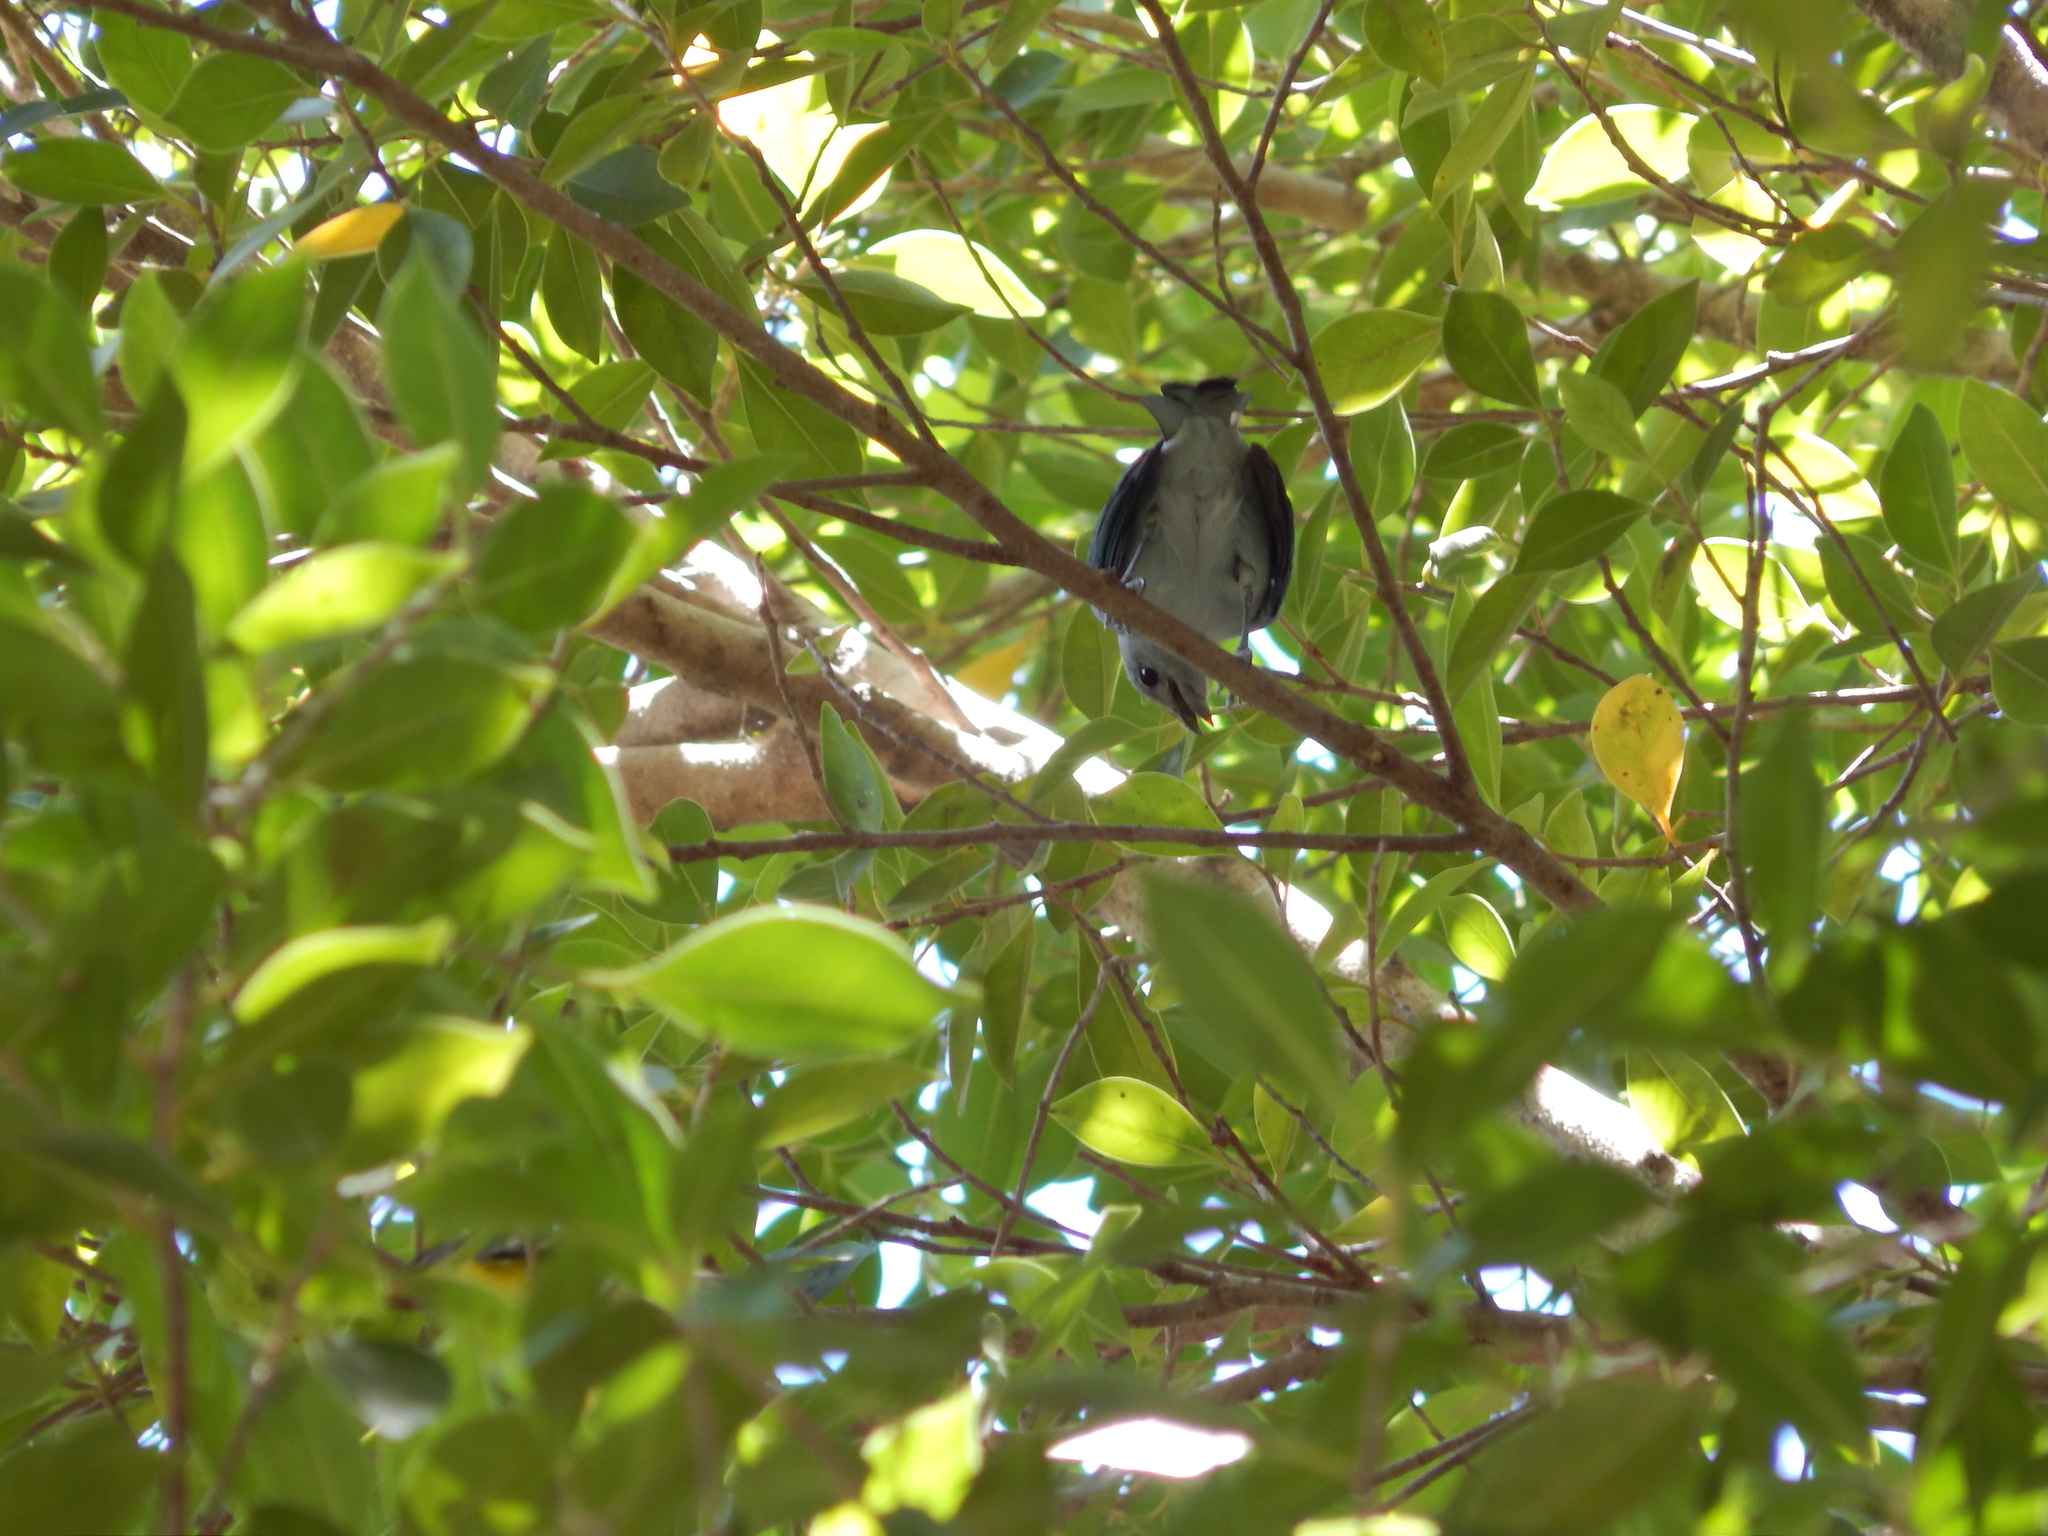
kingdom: Animalia
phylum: Chordata
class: Aves
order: Passeriformes
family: Thraupidae
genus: Thraupis
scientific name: Thraupis episcopus
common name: Blue-grey tanager
